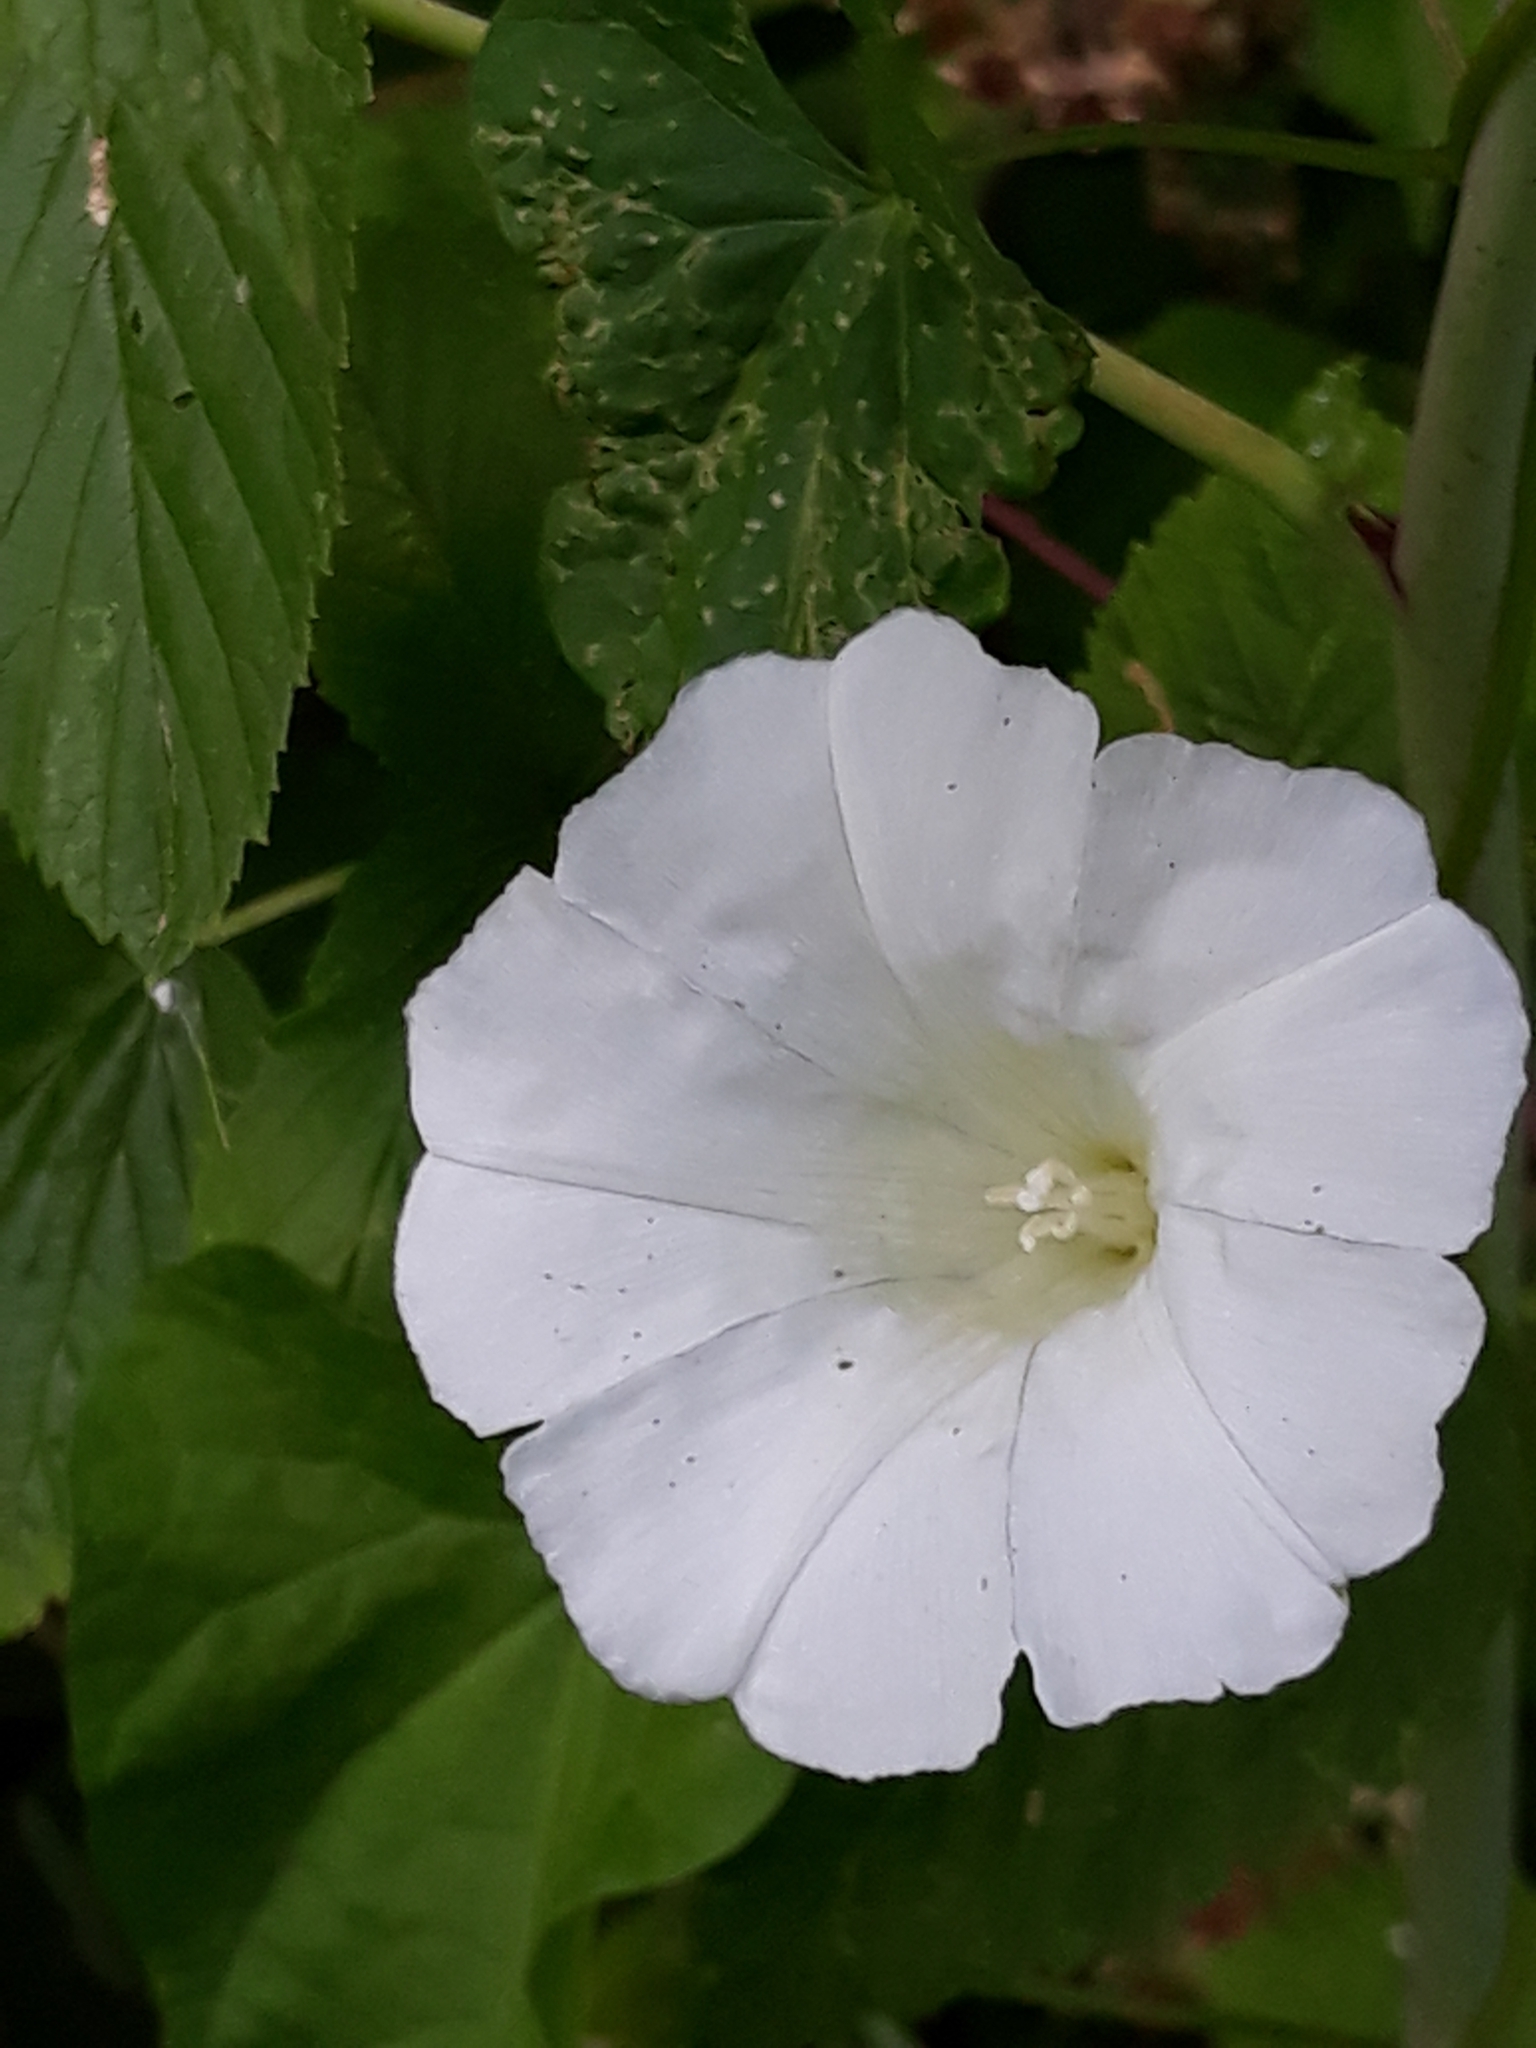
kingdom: Plantae
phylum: Tracheophyta
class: Magnoliopsida
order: Solanales
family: Convolvulaceae
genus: Calystegia
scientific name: Calystegia sepium
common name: Hedge bindweed
